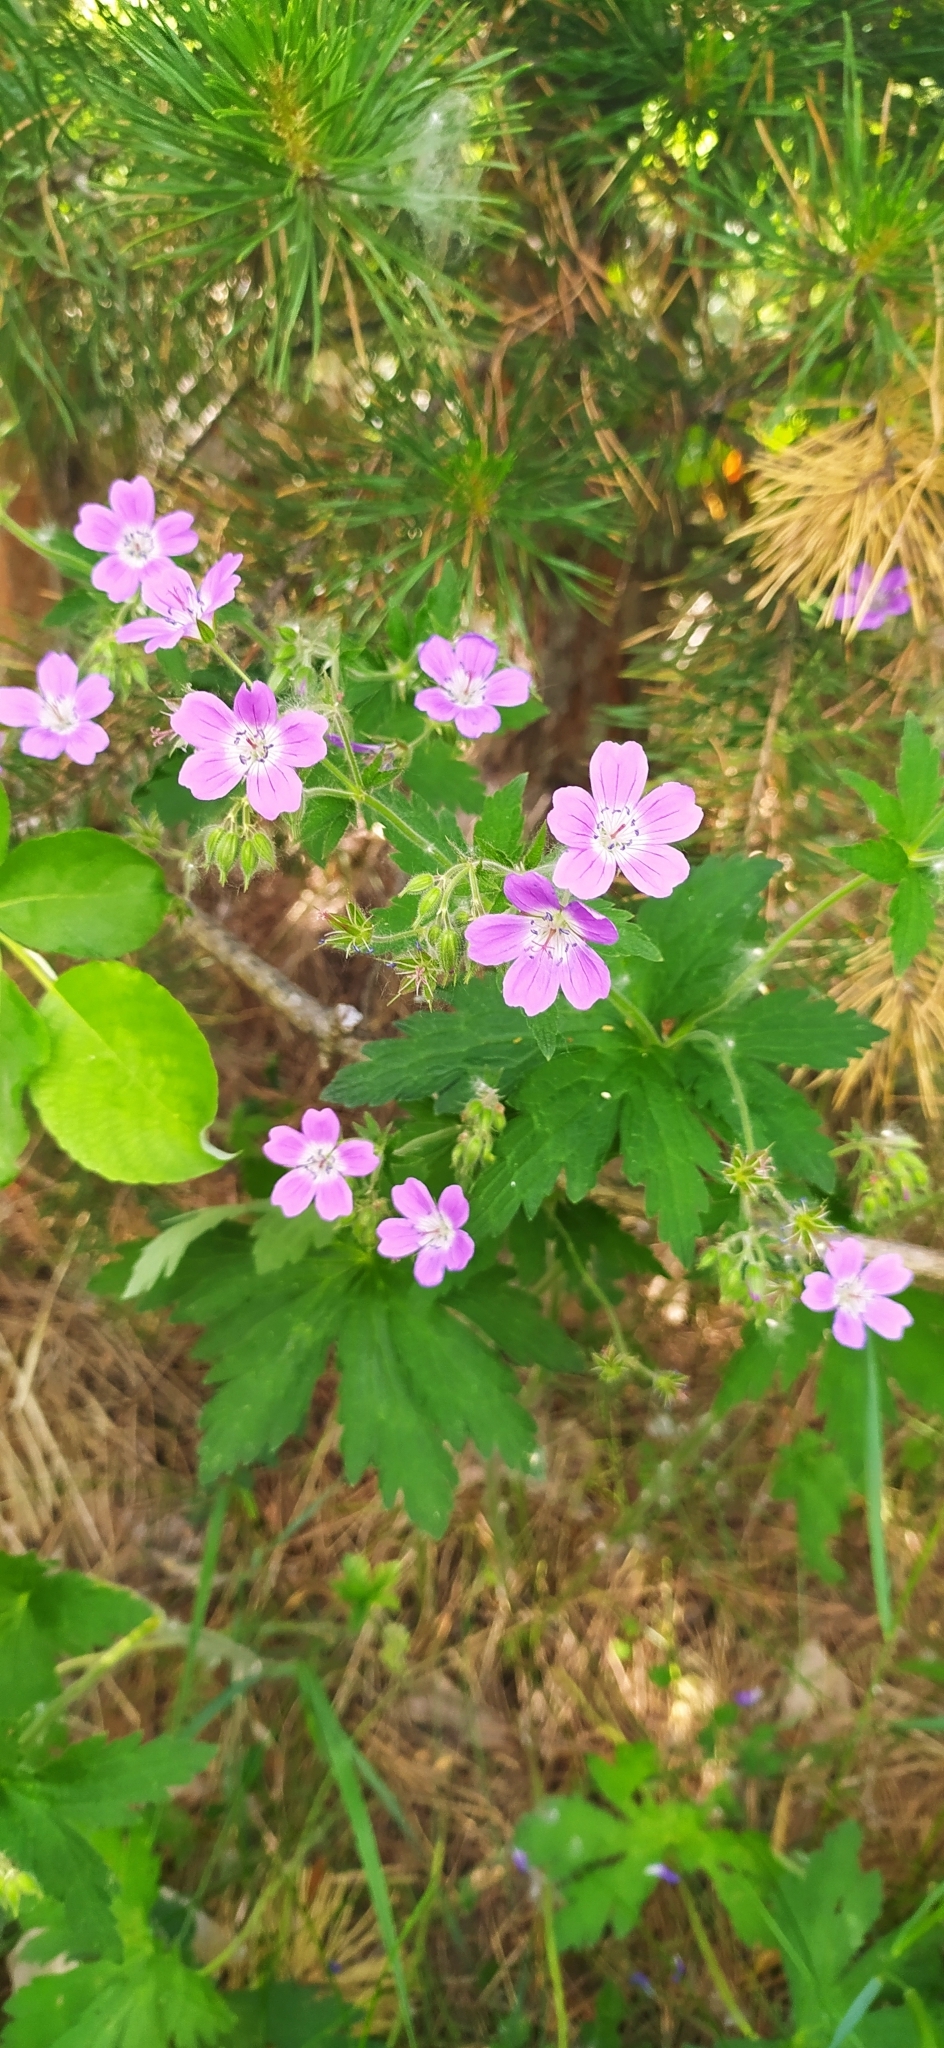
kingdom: Plantae
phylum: Tracheophyta
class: Magnoliopsida
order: Geraniales
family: Geraniaceae
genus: Geranium
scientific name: Geranium sylvaticum
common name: Wood crane's-bill
